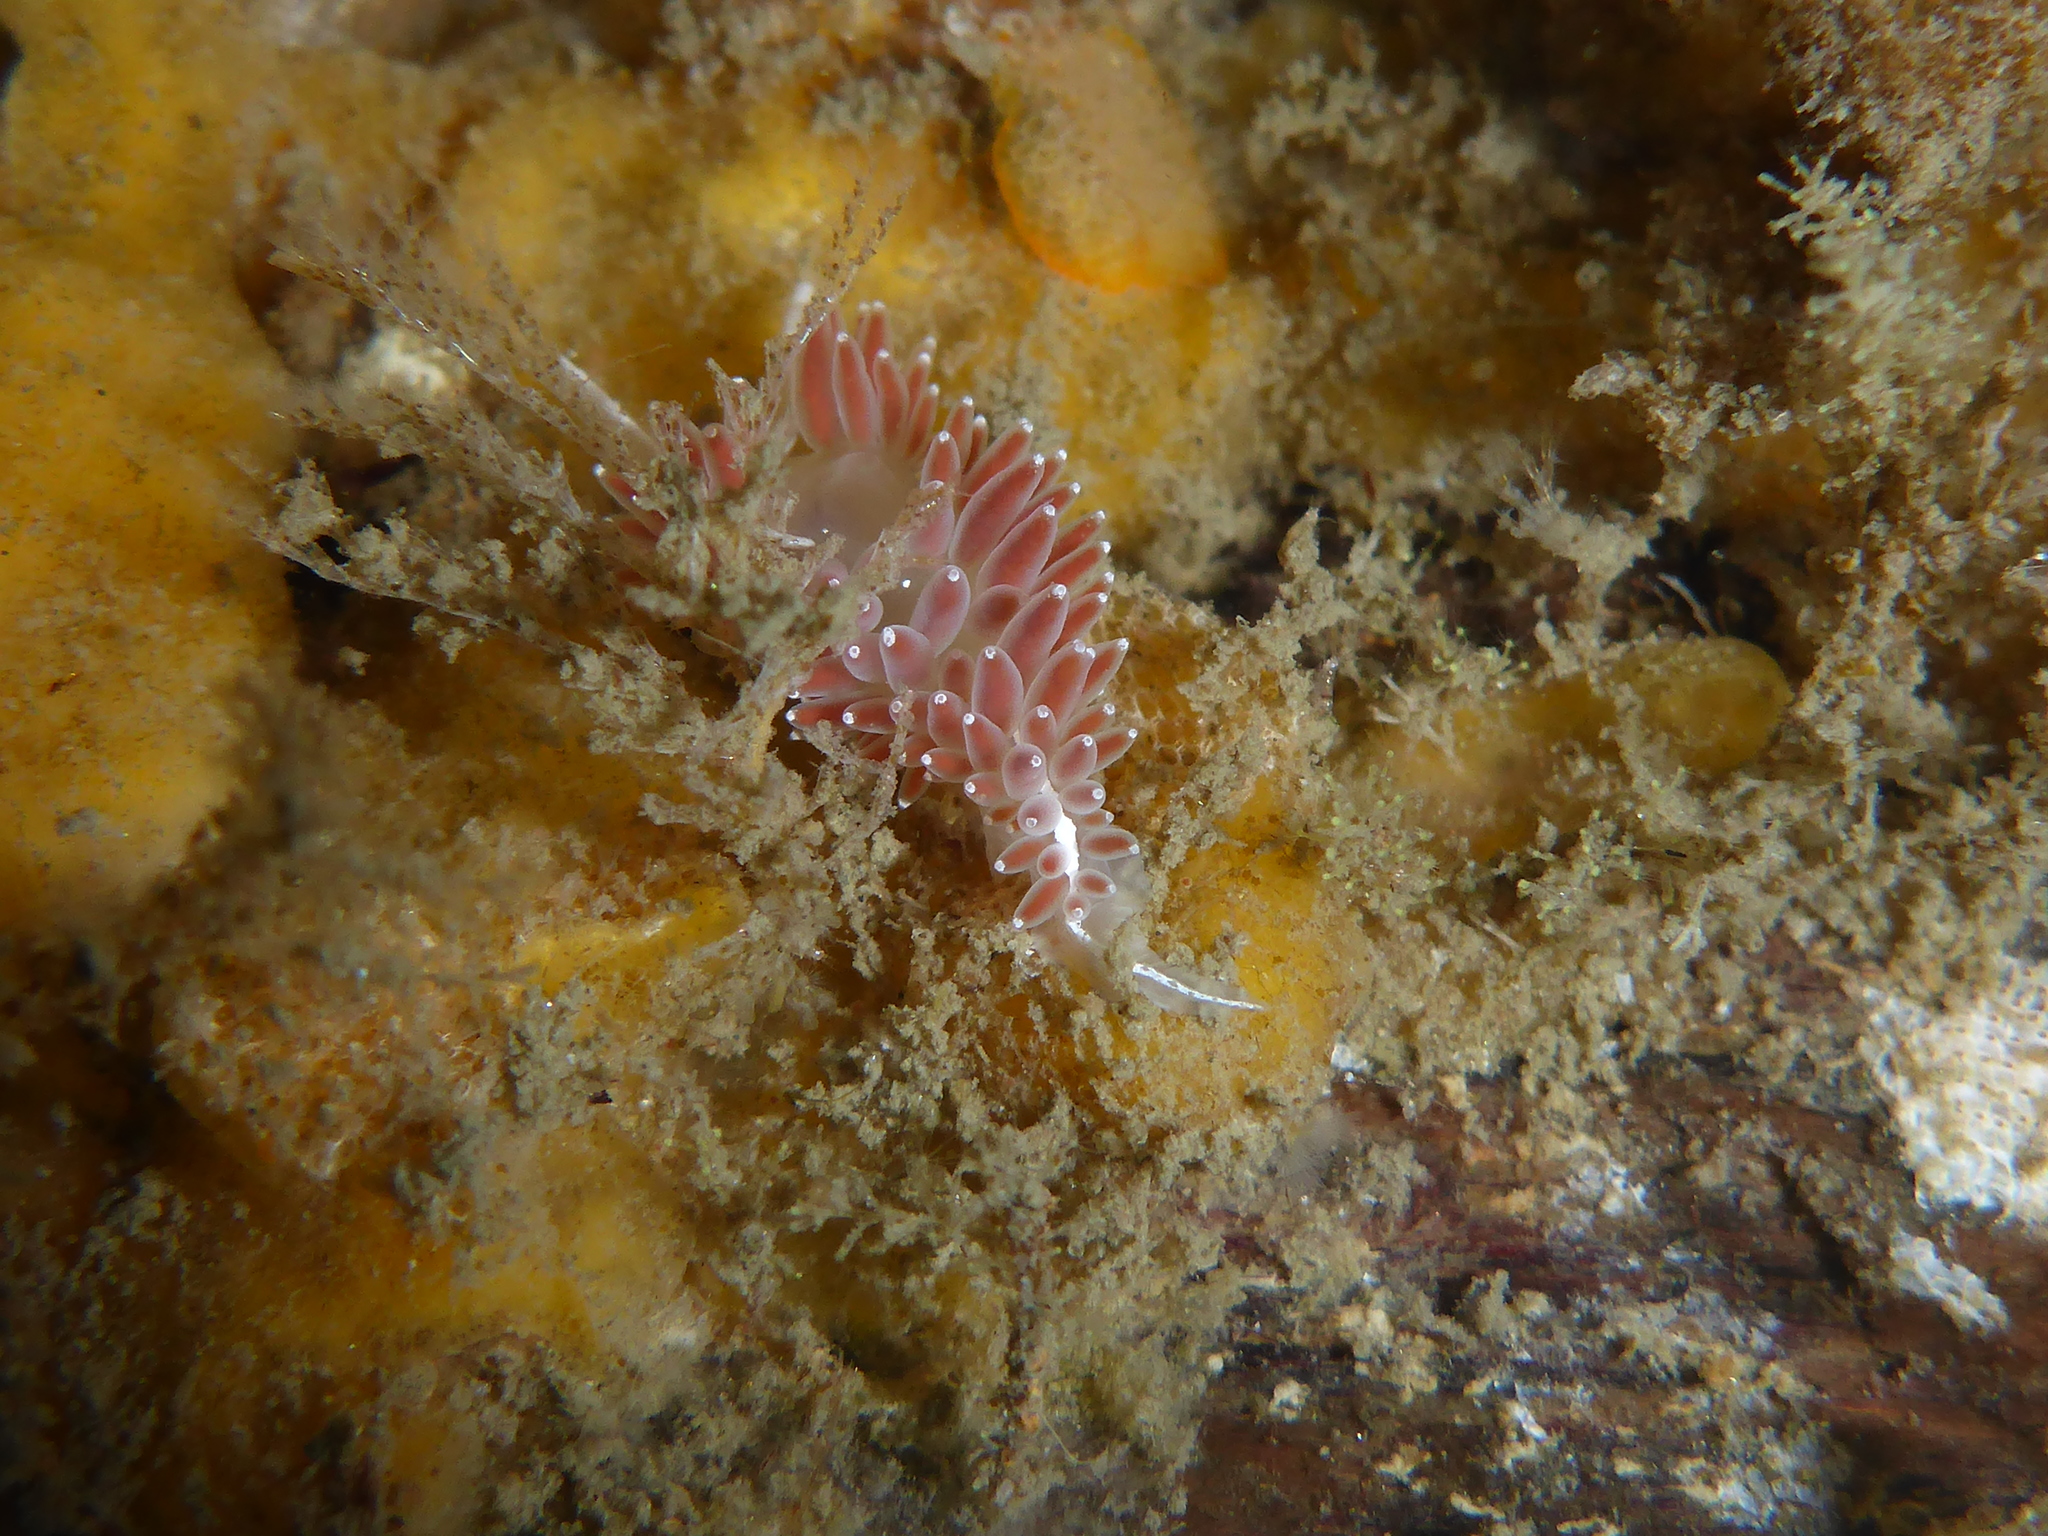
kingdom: Animalia
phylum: Mollusca
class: Gastropoda
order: Nudibranchia
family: Coryphellidae
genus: Coryphella
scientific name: Coryphella verrucosa
